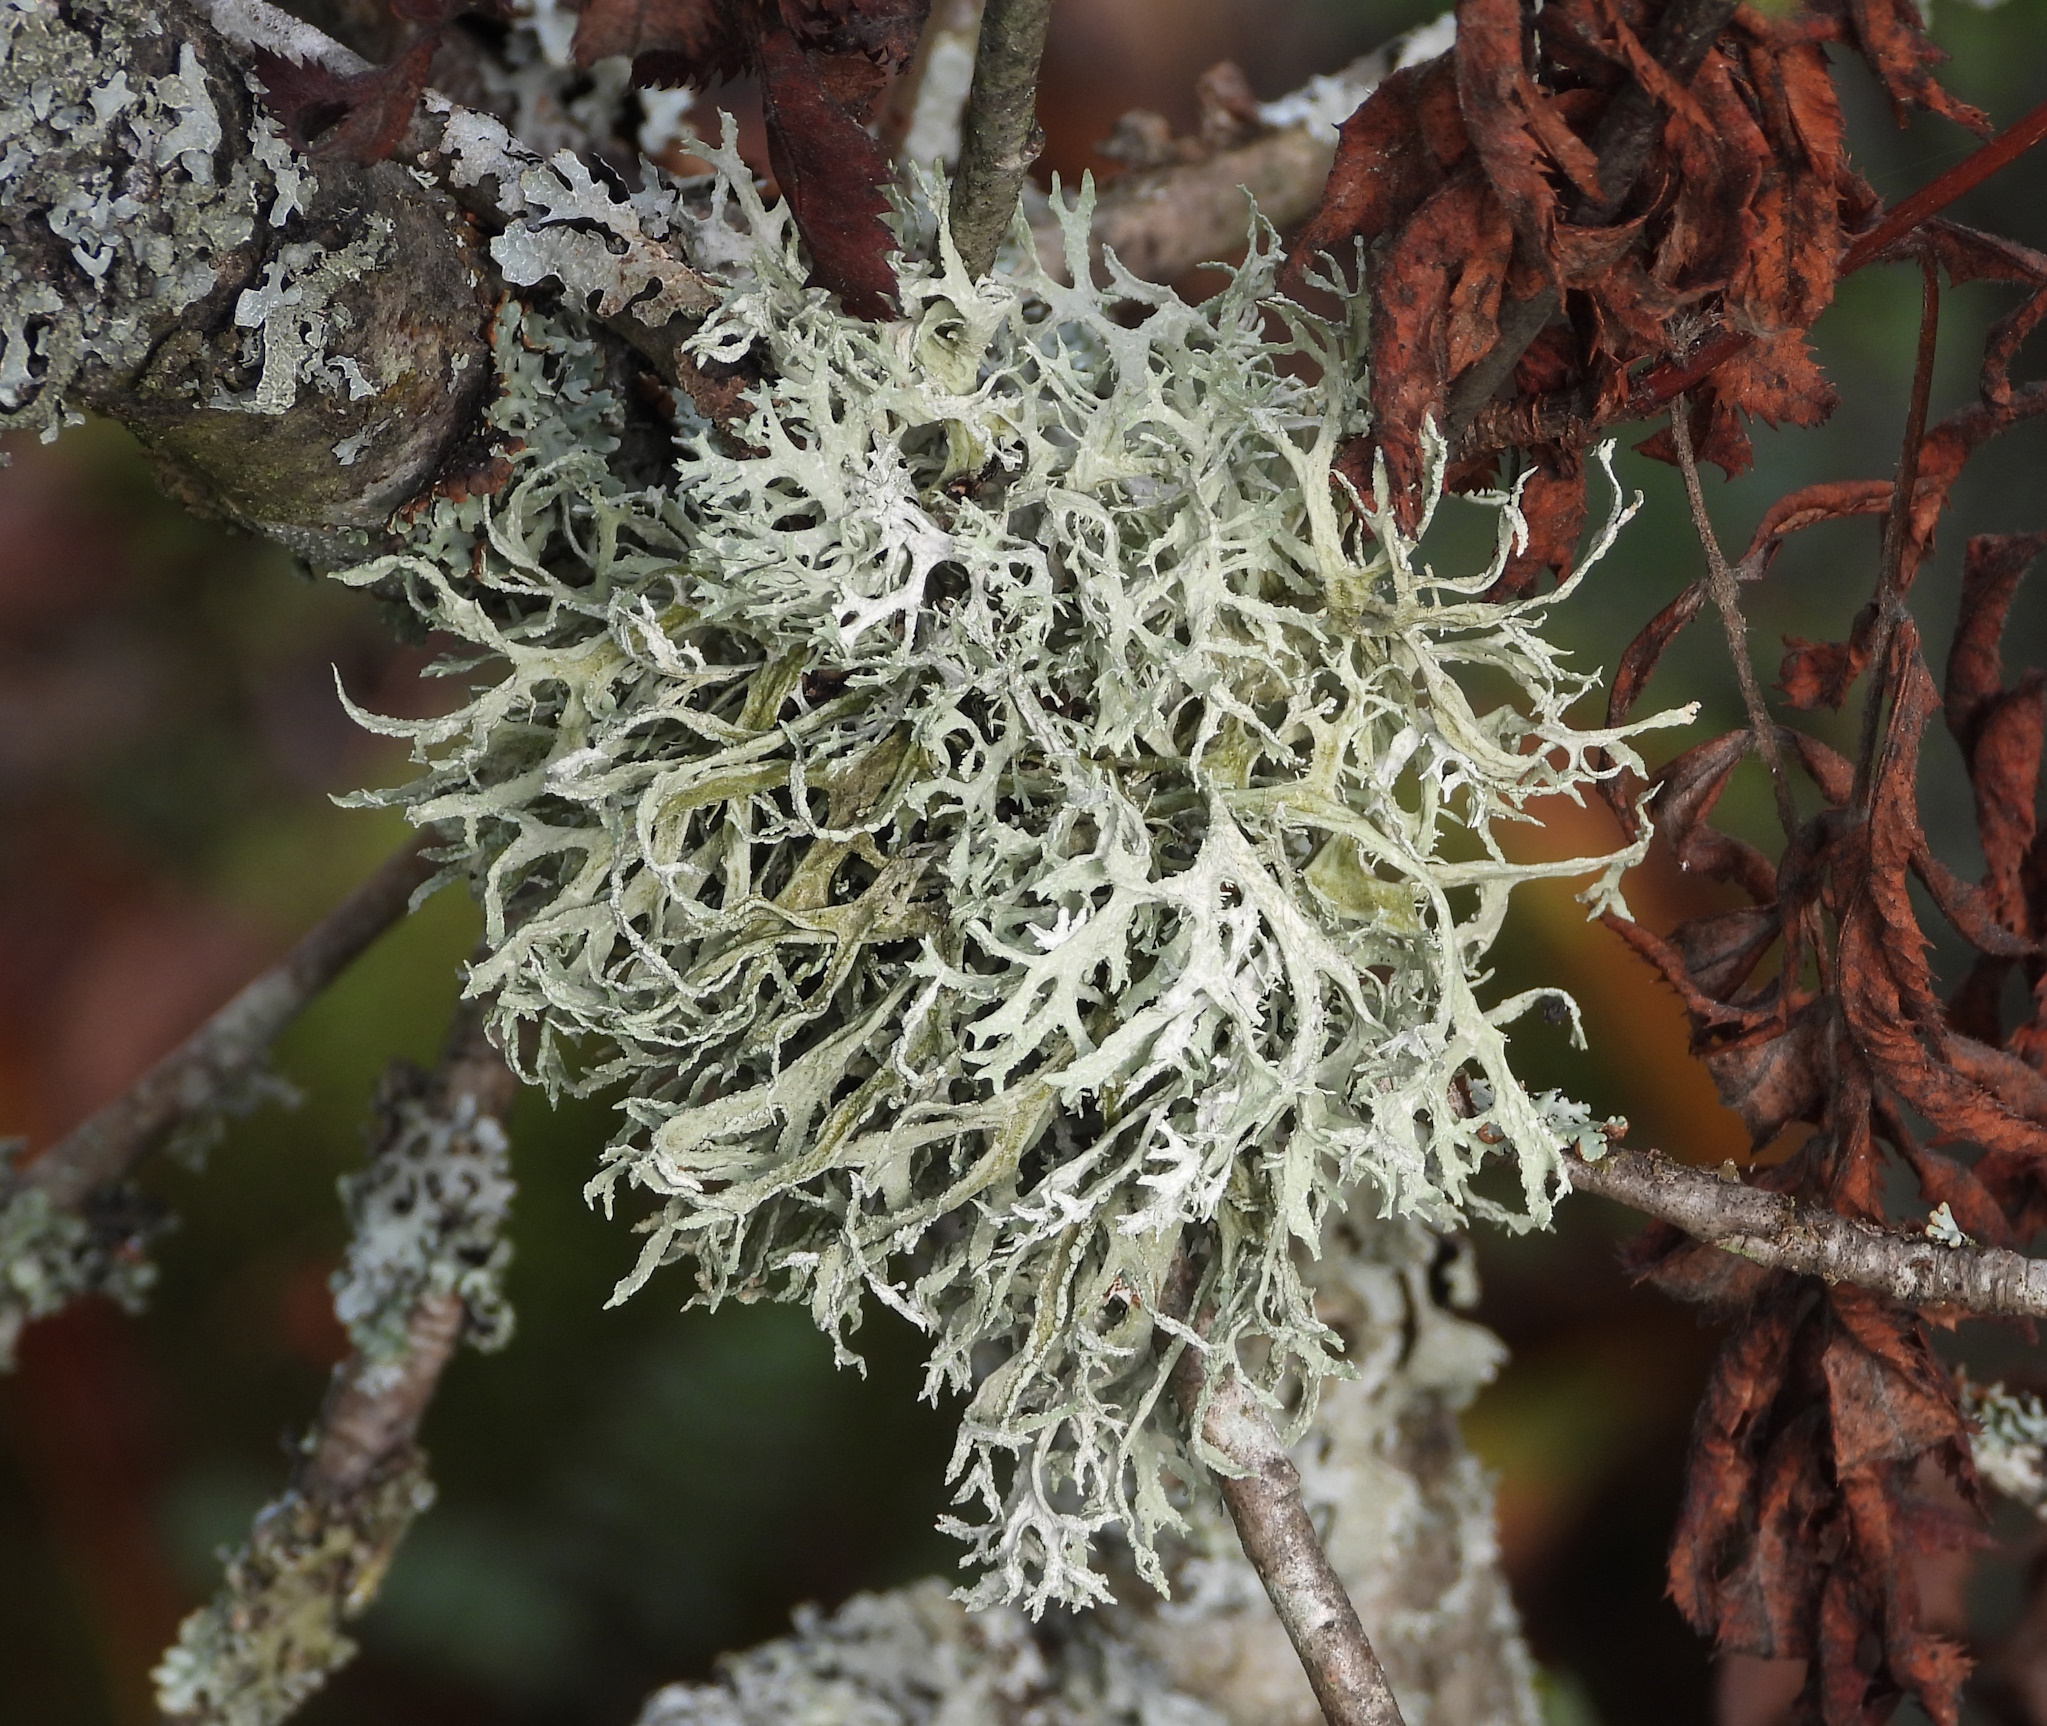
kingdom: Fungi
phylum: Ascomycota
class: Lecanoromycetes
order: Lecanorales
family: Parmeliaceae
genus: Evernia
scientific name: Evernia prunastri
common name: Oak moss
